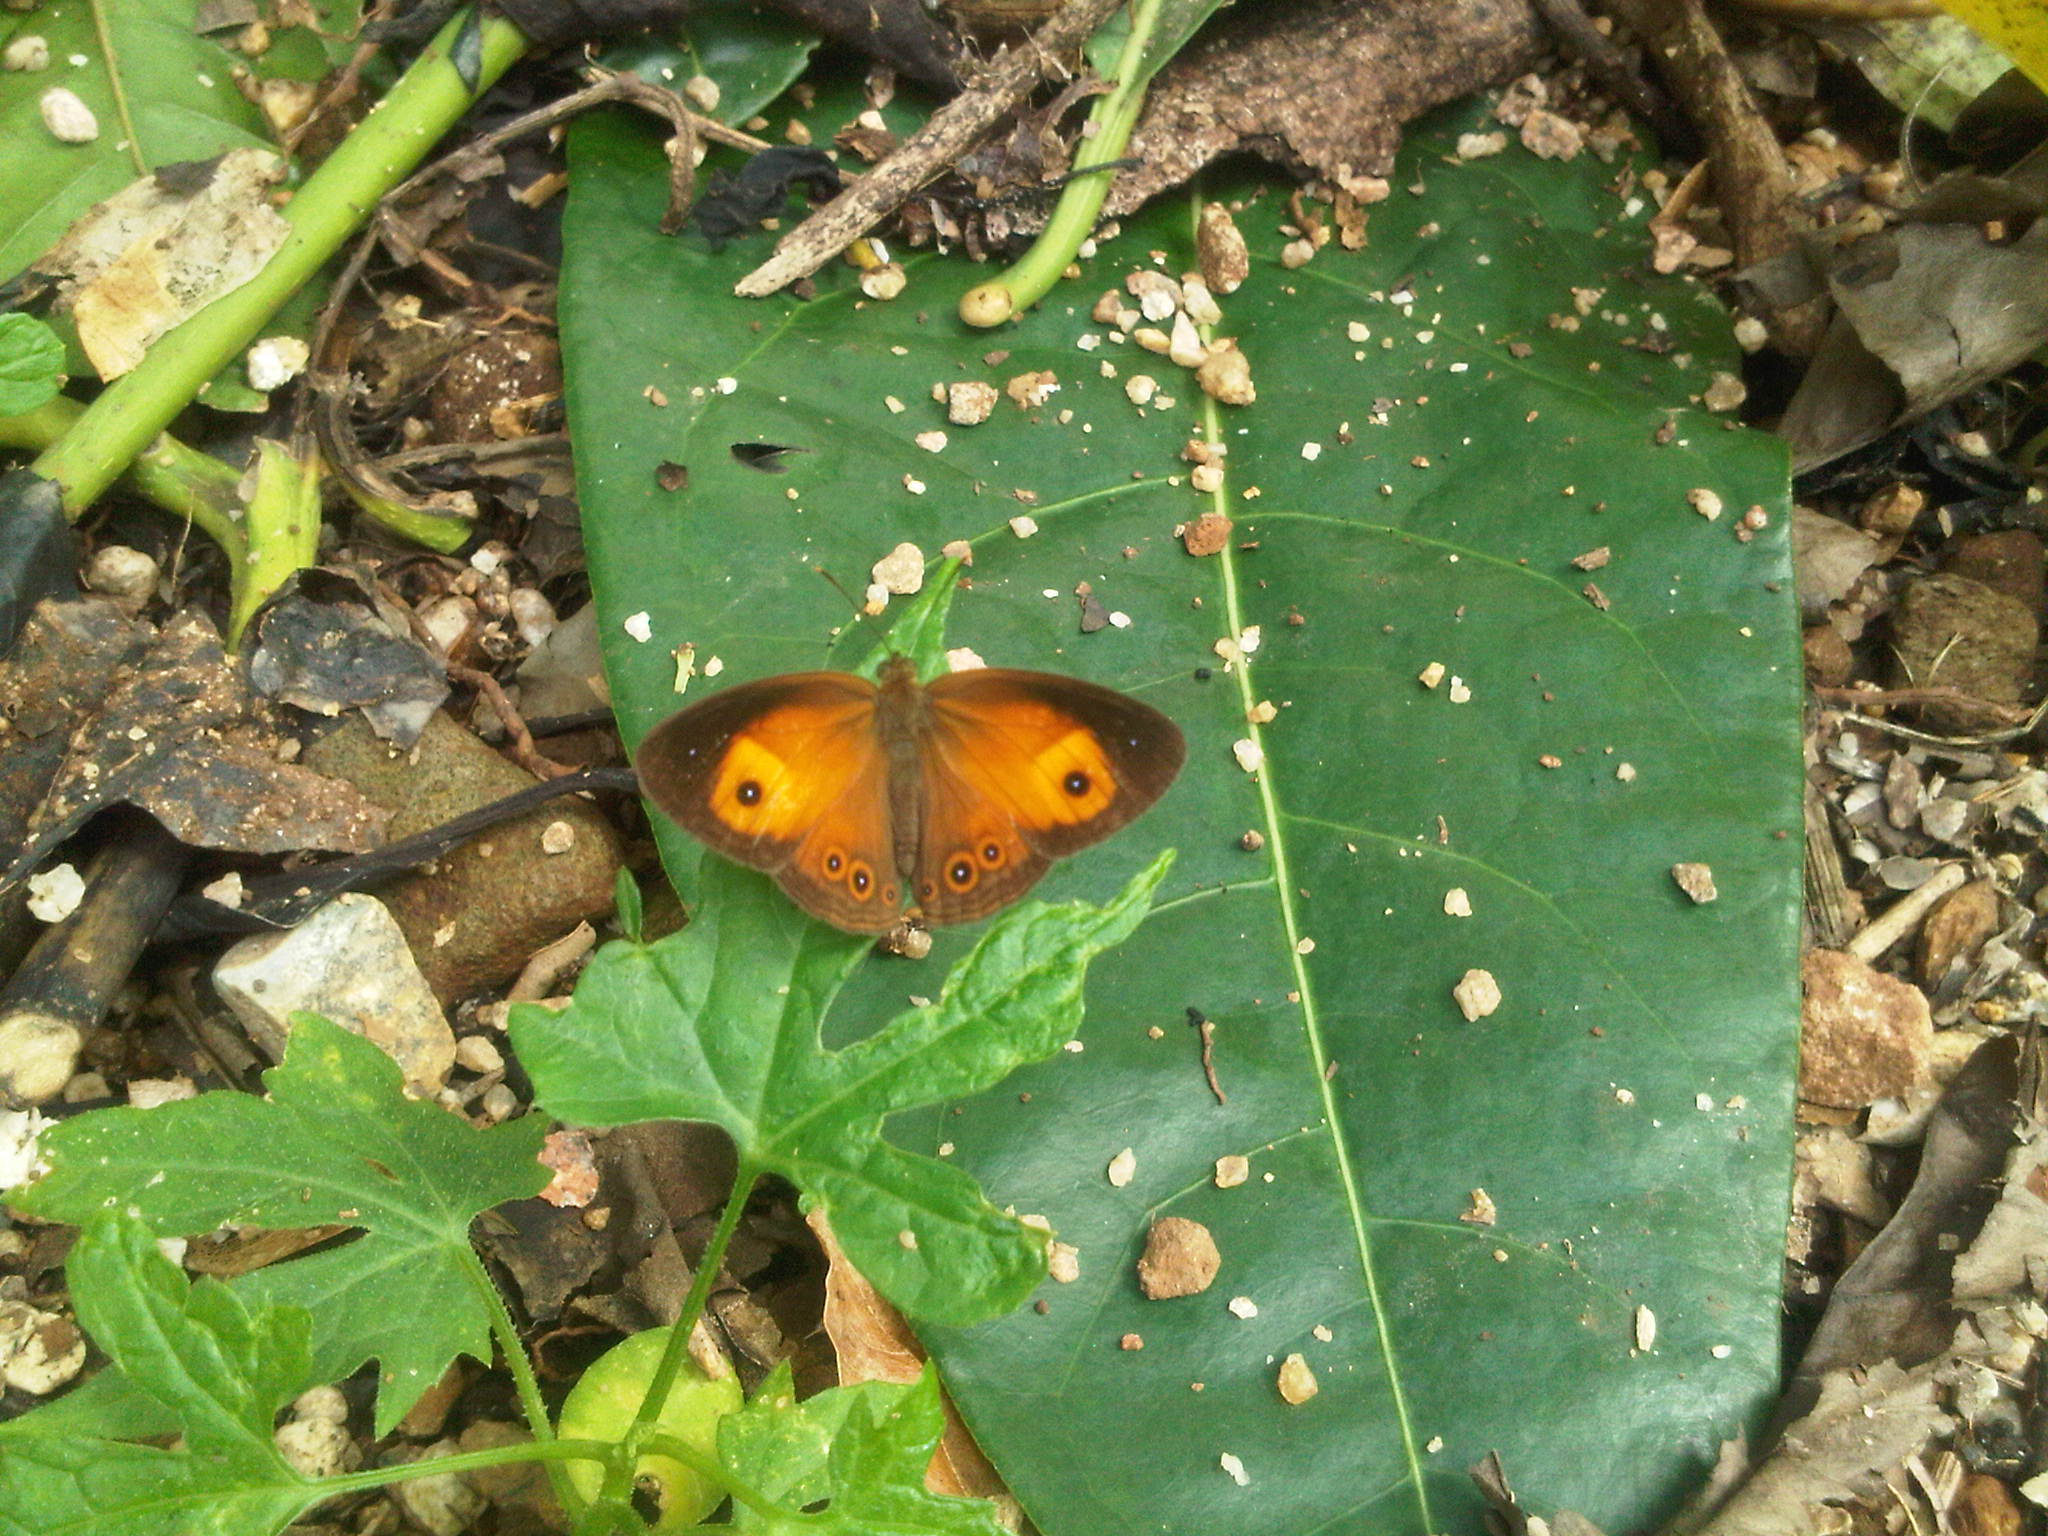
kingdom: Animalia
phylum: Arthropoda
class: Insecta
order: Lepidoptera
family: Nymphalidae
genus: Mycalesis
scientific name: Mycalesis terminus
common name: Orange bushbrown
